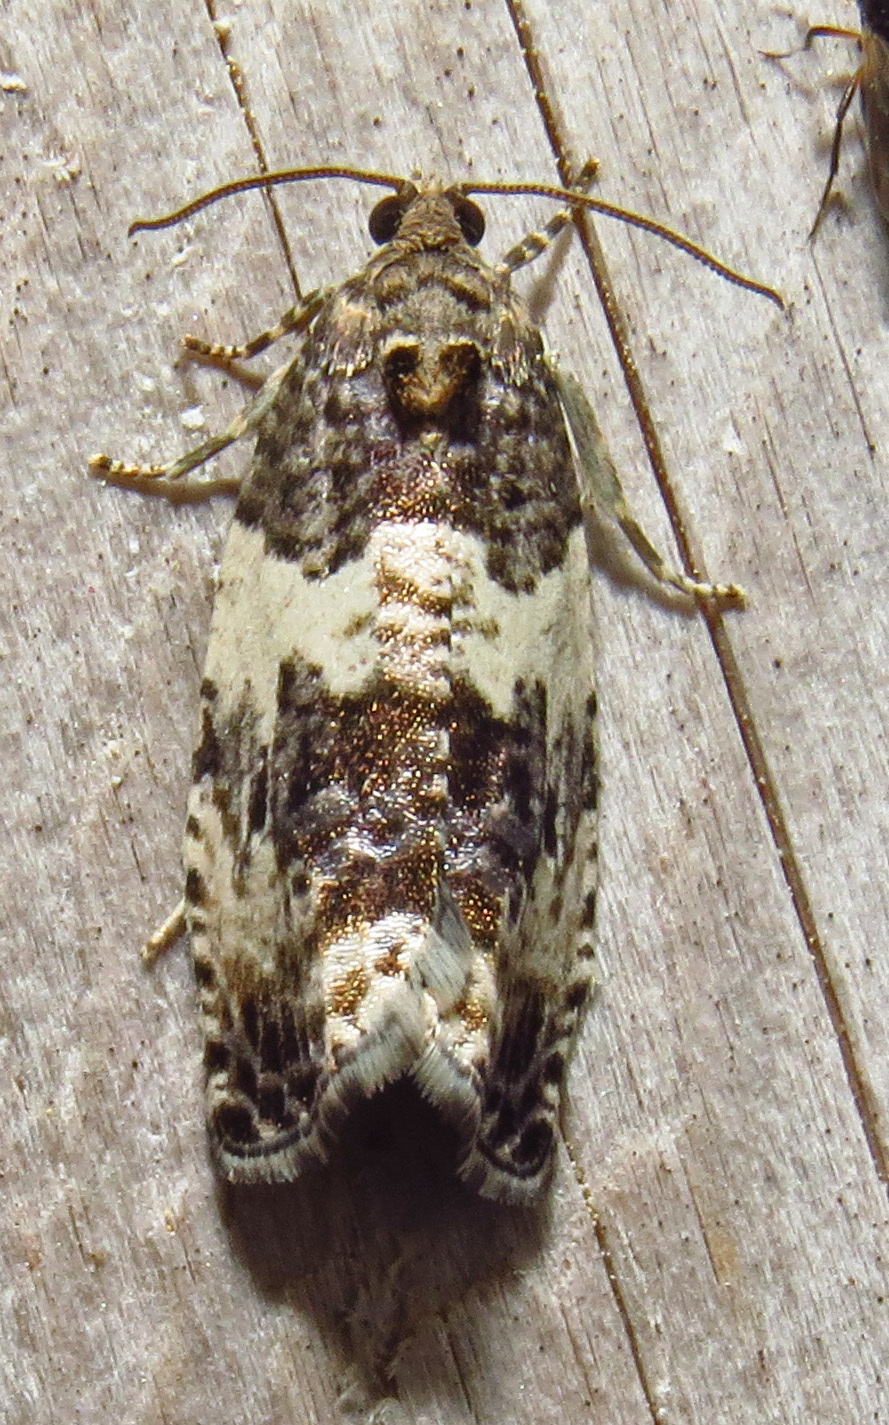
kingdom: Animalia
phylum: Arthropoda
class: Insecta
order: Lepidoptera
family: Tortricidae
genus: Pseudosciaphila
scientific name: Pseudosciaphila duplex
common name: Poplar leafroller moth
